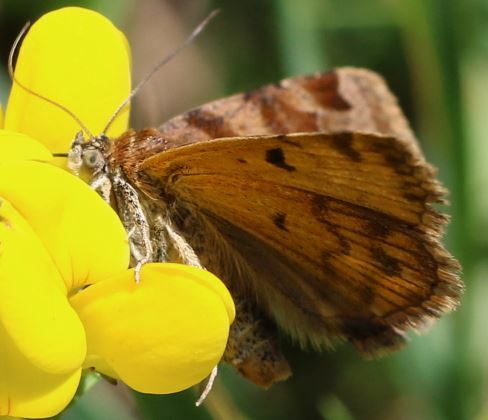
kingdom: Animalia
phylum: Arthropoda
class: Insecta
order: Lepidoptera
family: Erebidae
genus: Euclidia
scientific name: Euclidia glyphica
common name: Burnet companion
